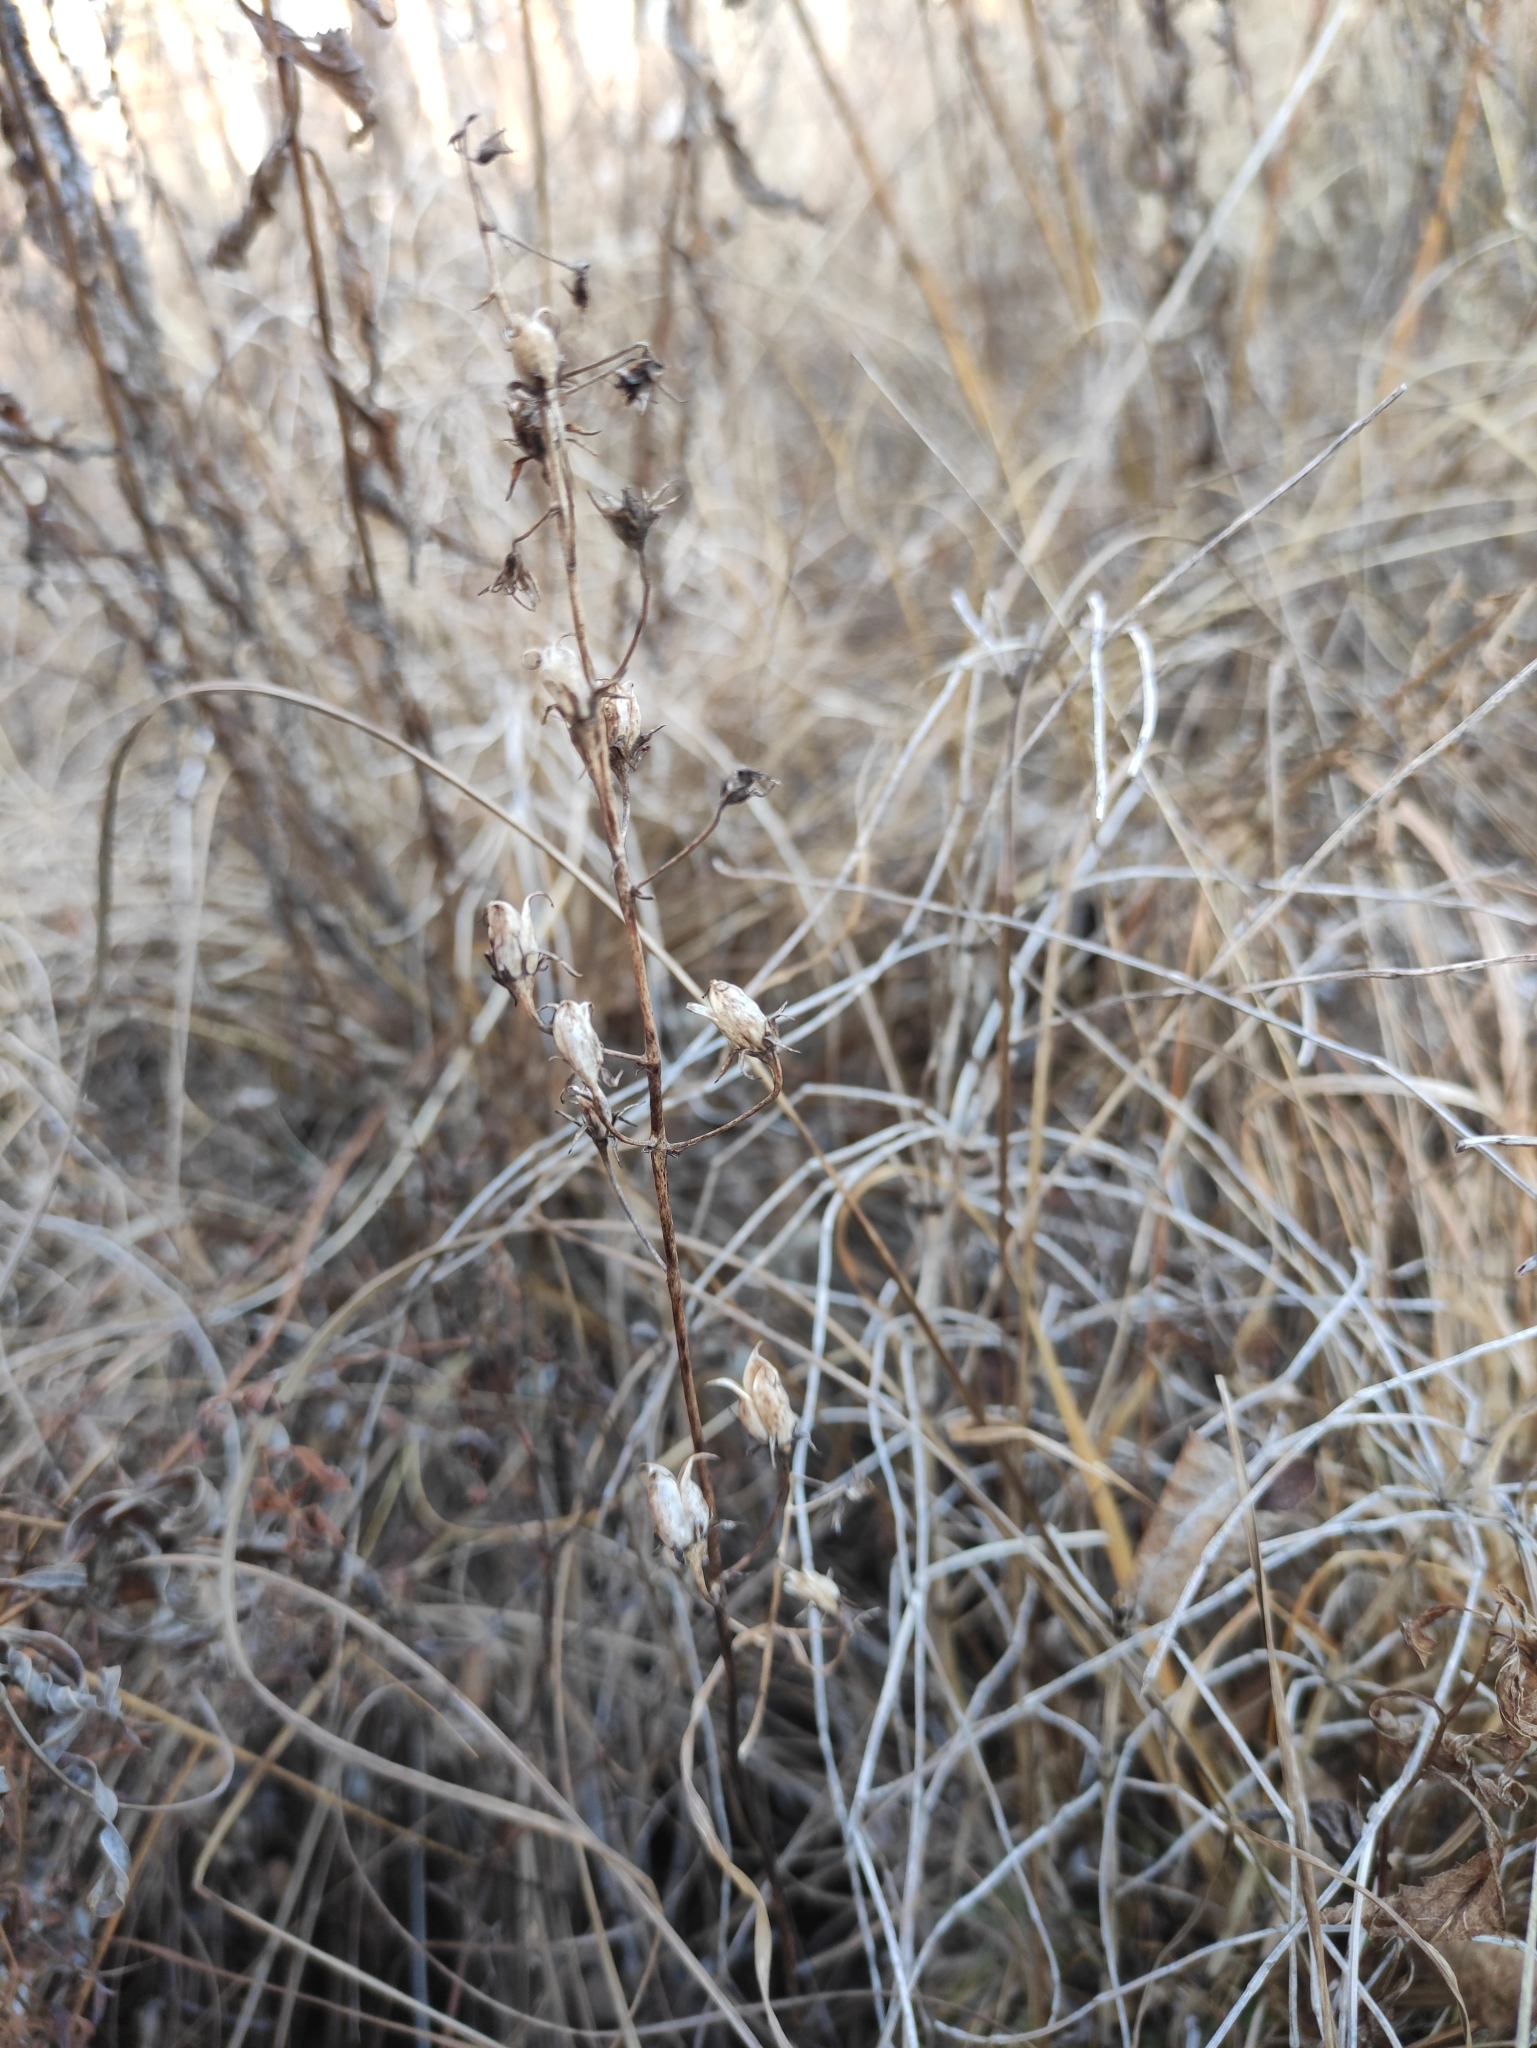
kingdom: Plantae
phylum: Tracheophyta
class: Liliopsida
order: Liliales
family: Melanthiaceae
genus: Anticlea
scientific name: Anticlea sibirica
